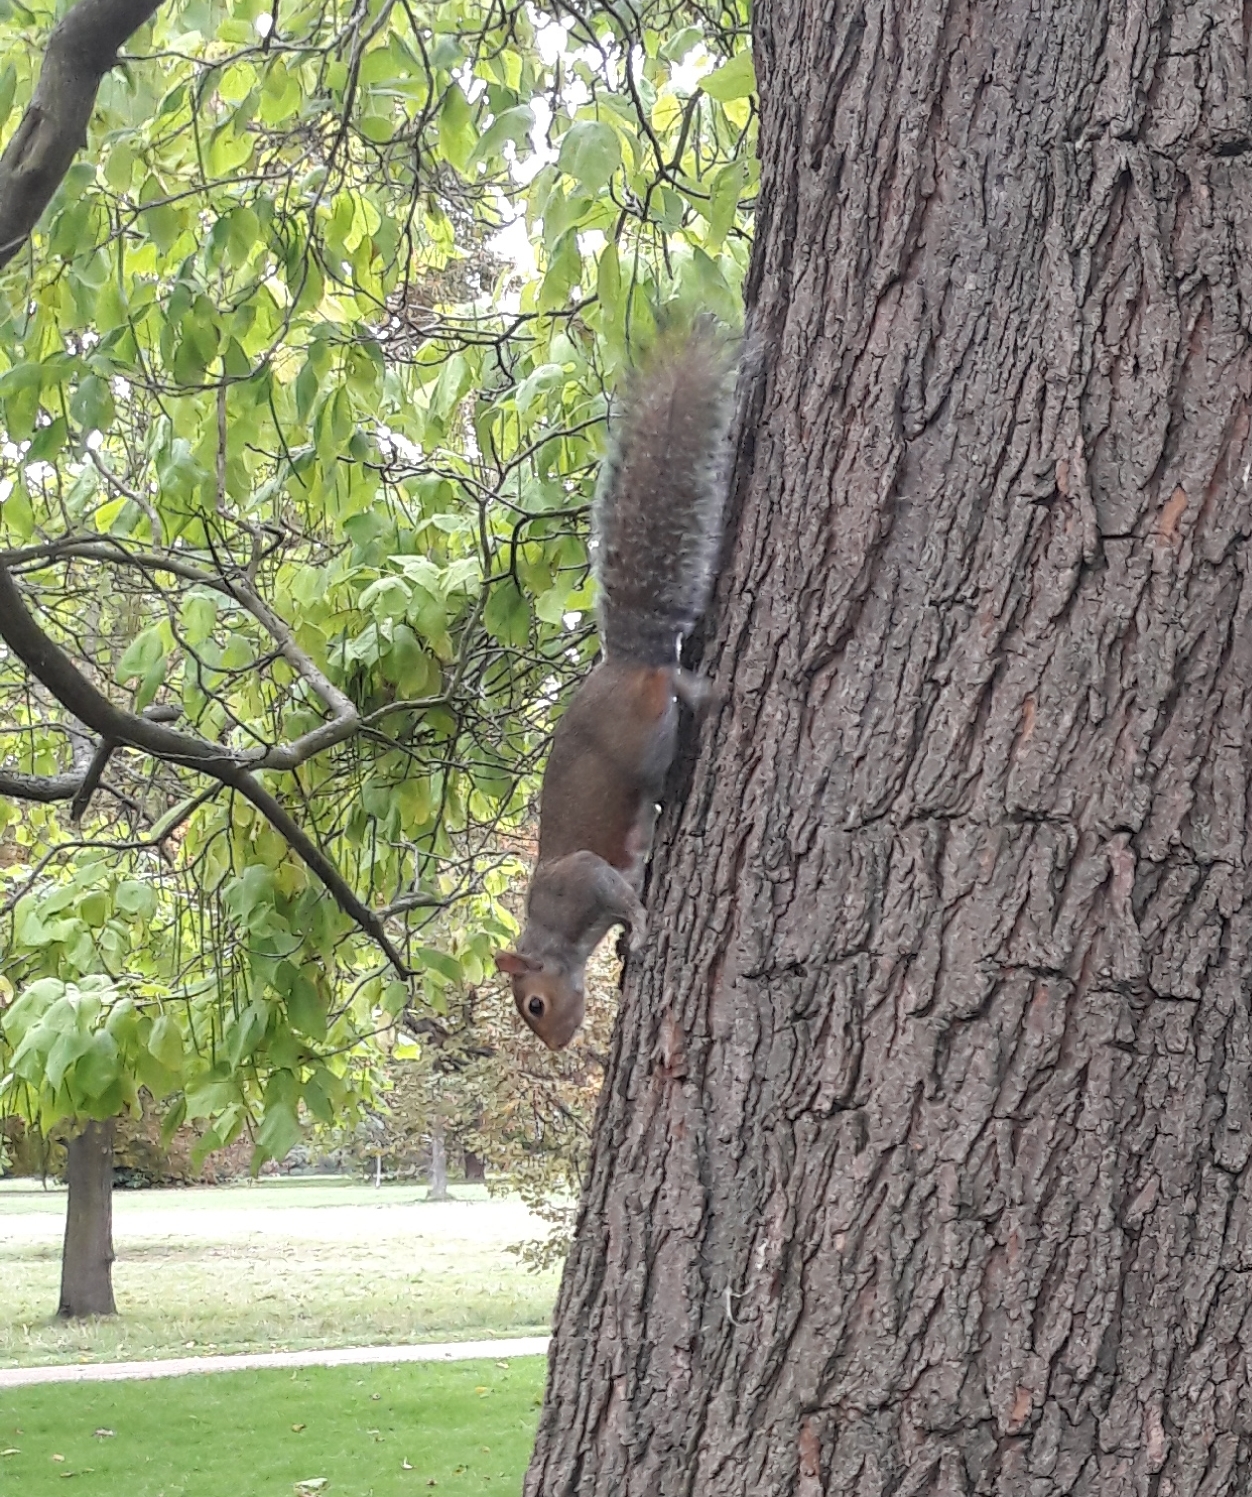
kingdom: Animalia
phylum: Chordata
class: Mammalia
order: Rodentia
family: Sciuridae
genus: Sciurus
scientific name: Sciurus carolinensis
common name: Eastern gray squirrel
